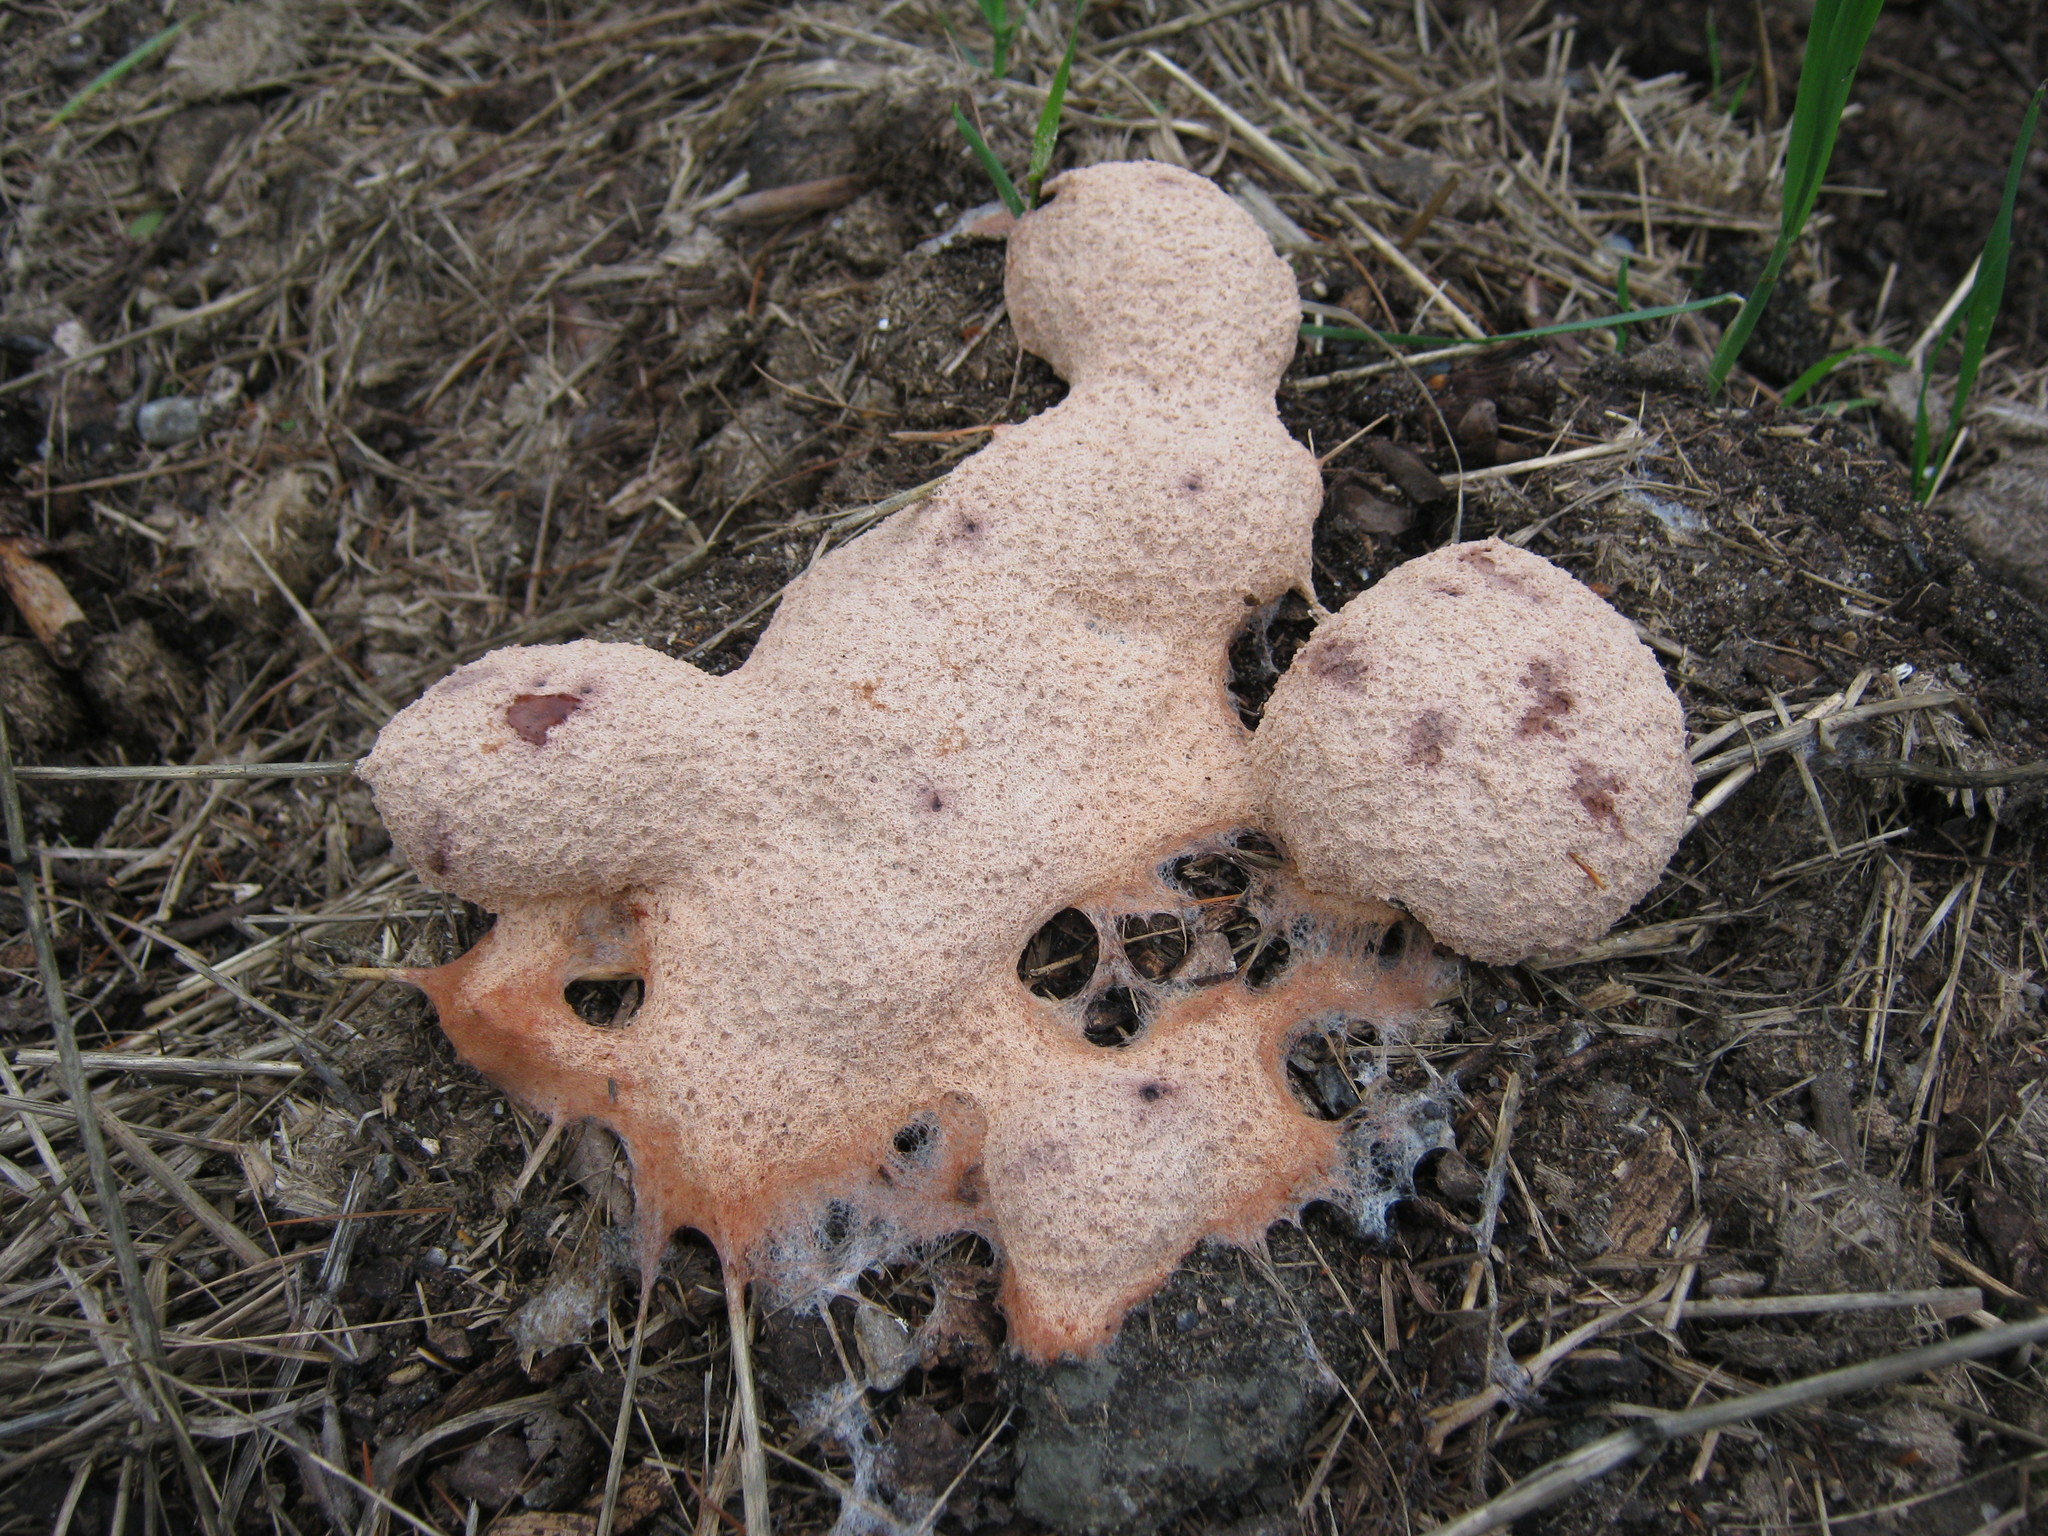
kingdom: Protozoa
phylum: Mycetozoa
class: Myxomycetes
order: Physarales
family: Physaraceae
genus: Fuligo
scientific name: Fuligo septica
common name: Dog vomit slime mold
